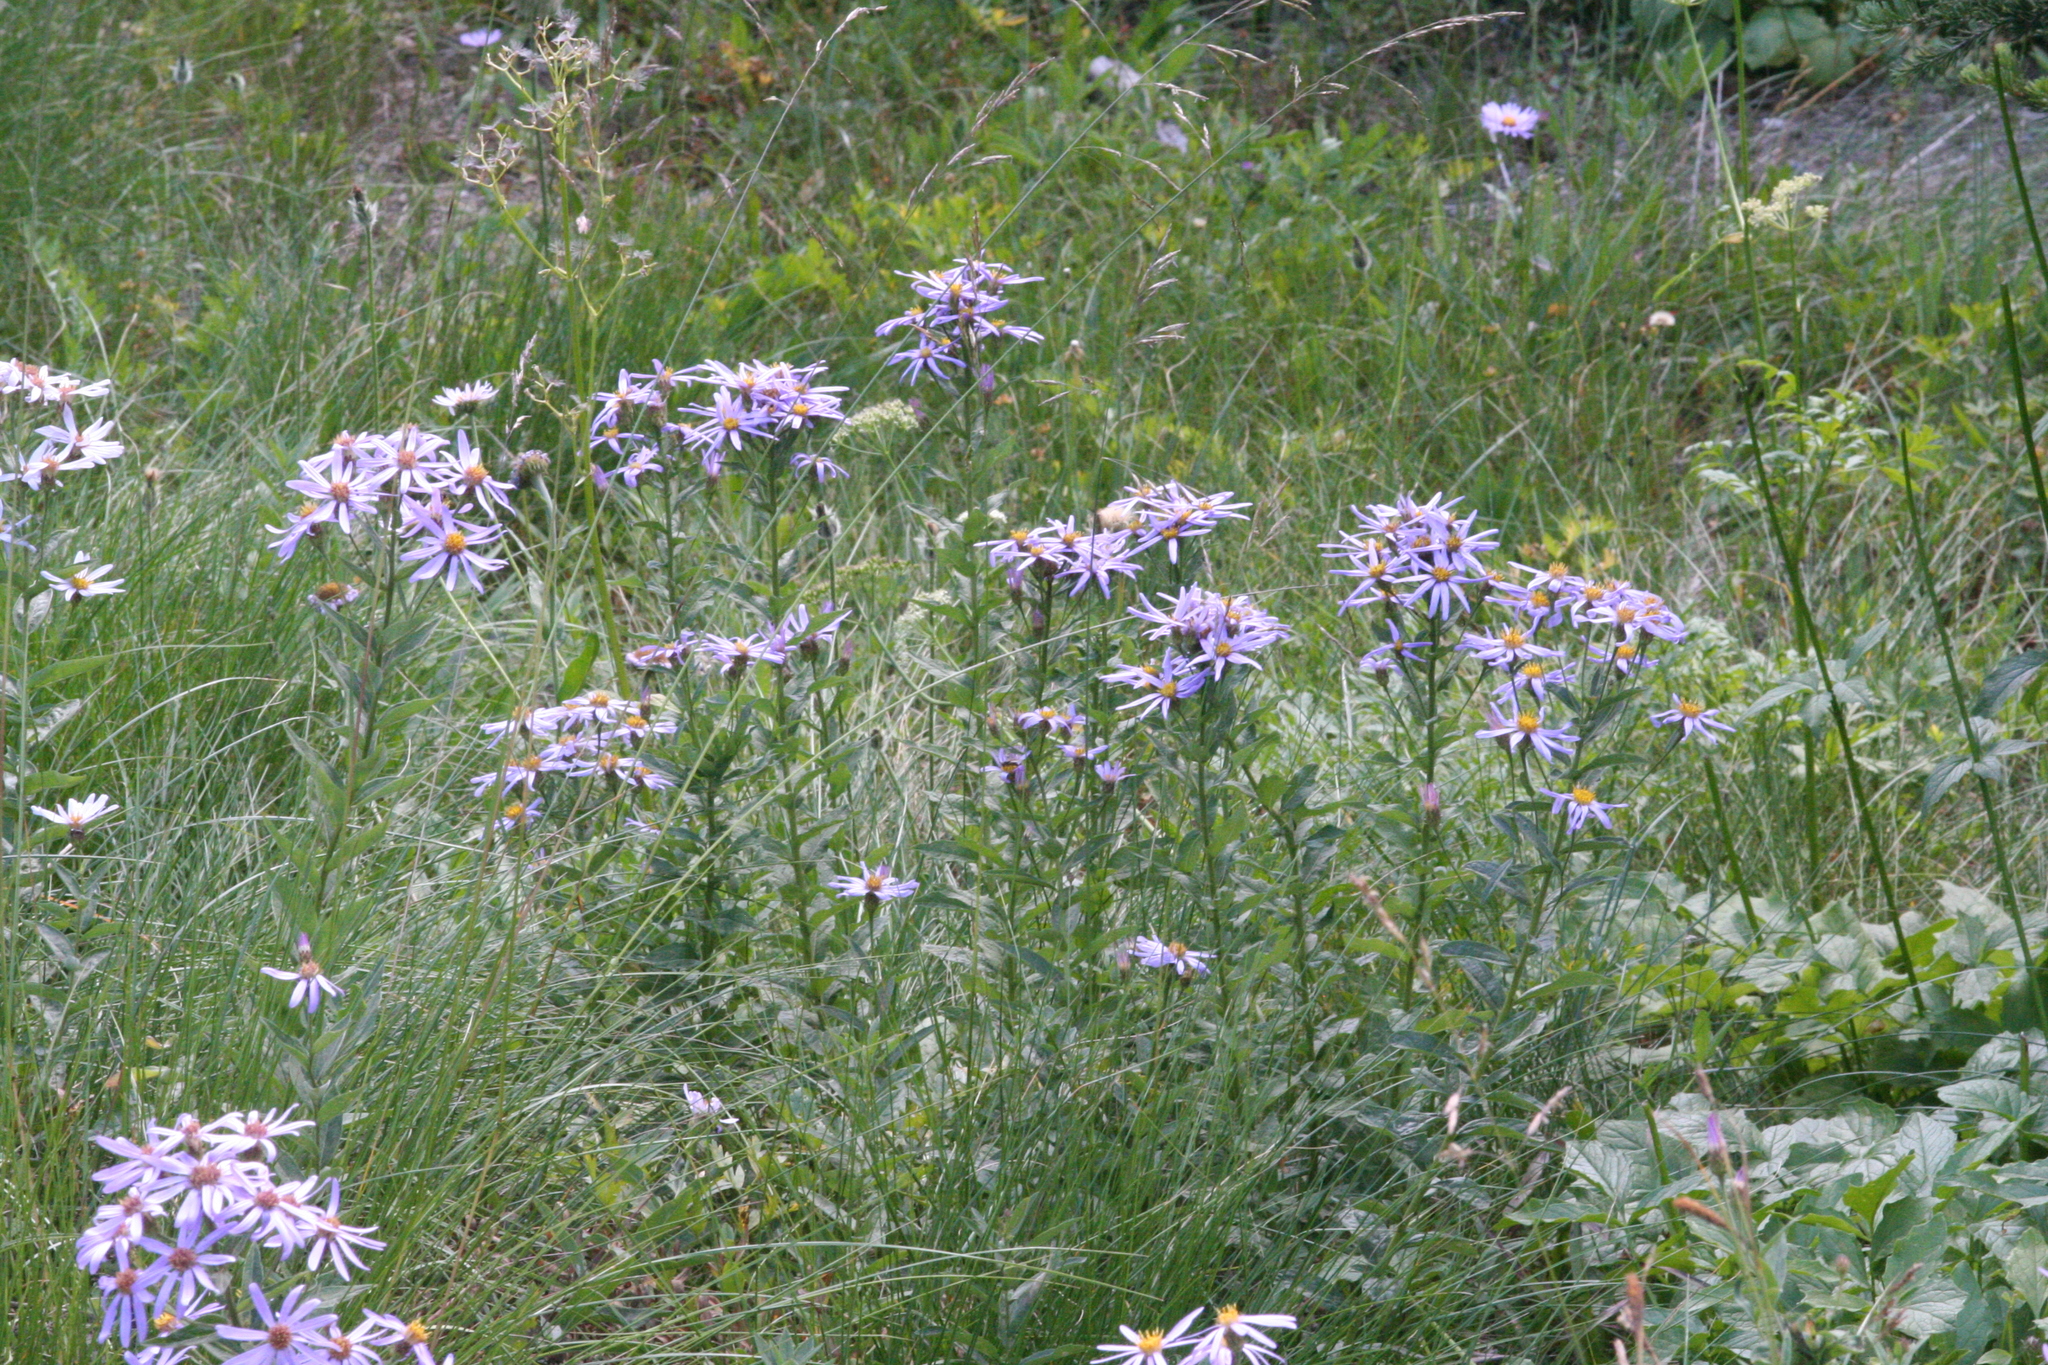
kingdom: Plantae
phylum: Tracheophyta
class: Magnoliopsida
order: Asterales
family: Asteraceae
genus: Eucephalus
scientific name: Eucephalus ledophyllus
